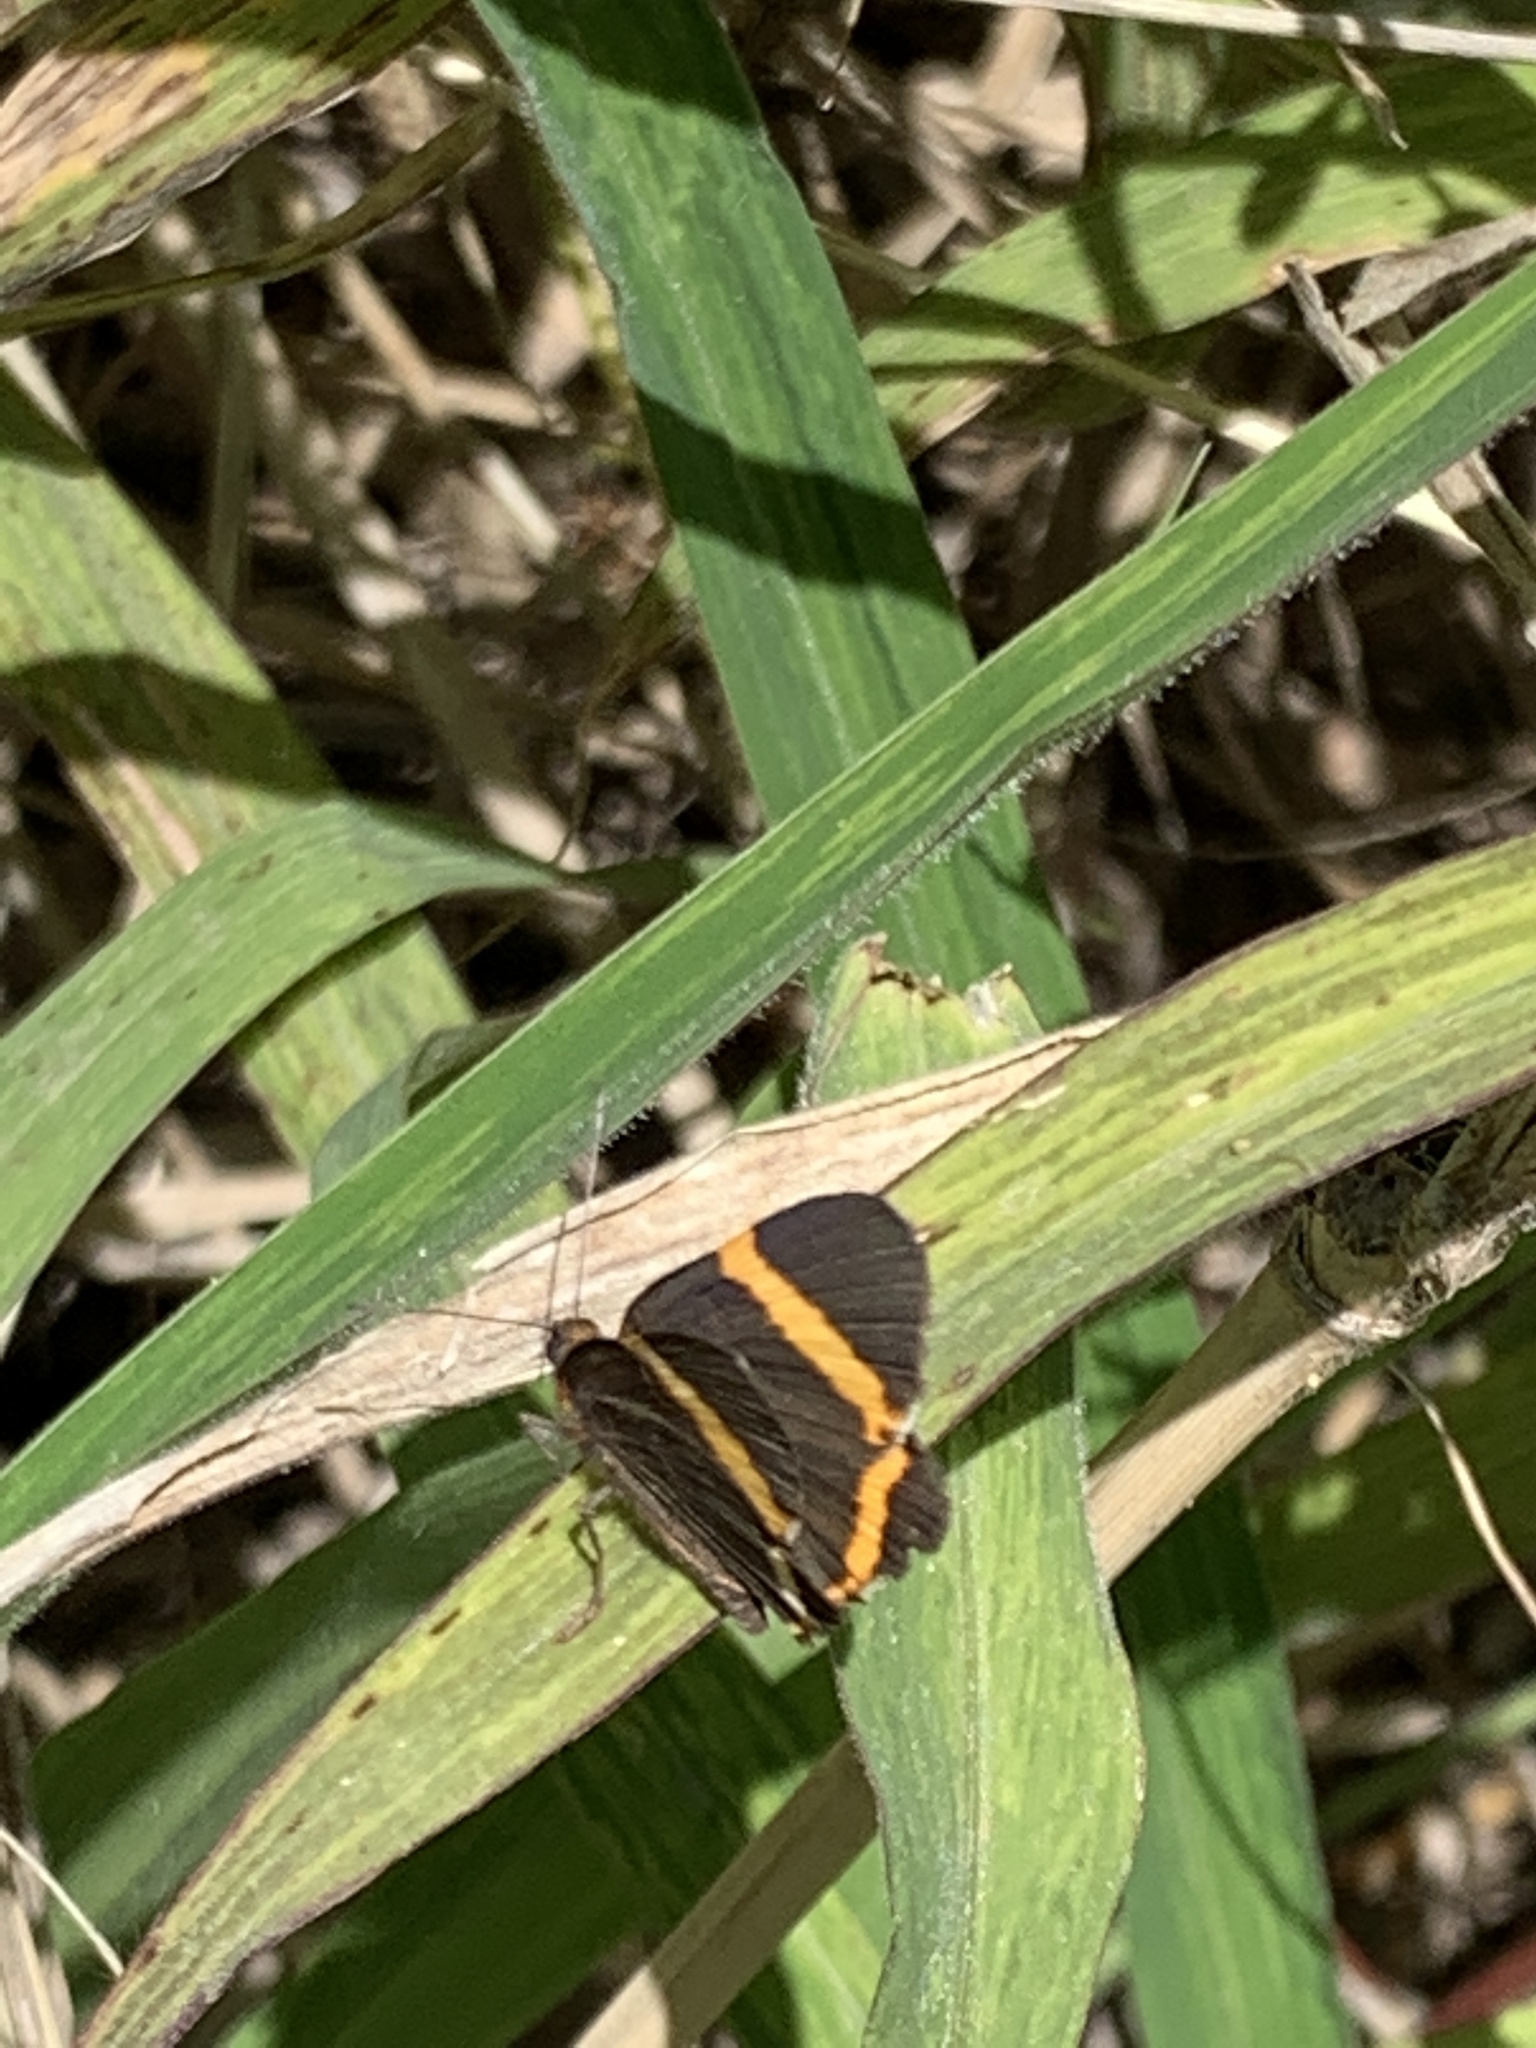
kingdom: Animalia
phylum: Arthropoda
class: Insecta
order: Lepidoptera
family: Riodinidae
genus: Riodina
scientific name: Riodina lysippoides
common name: Little dancer metalmark
